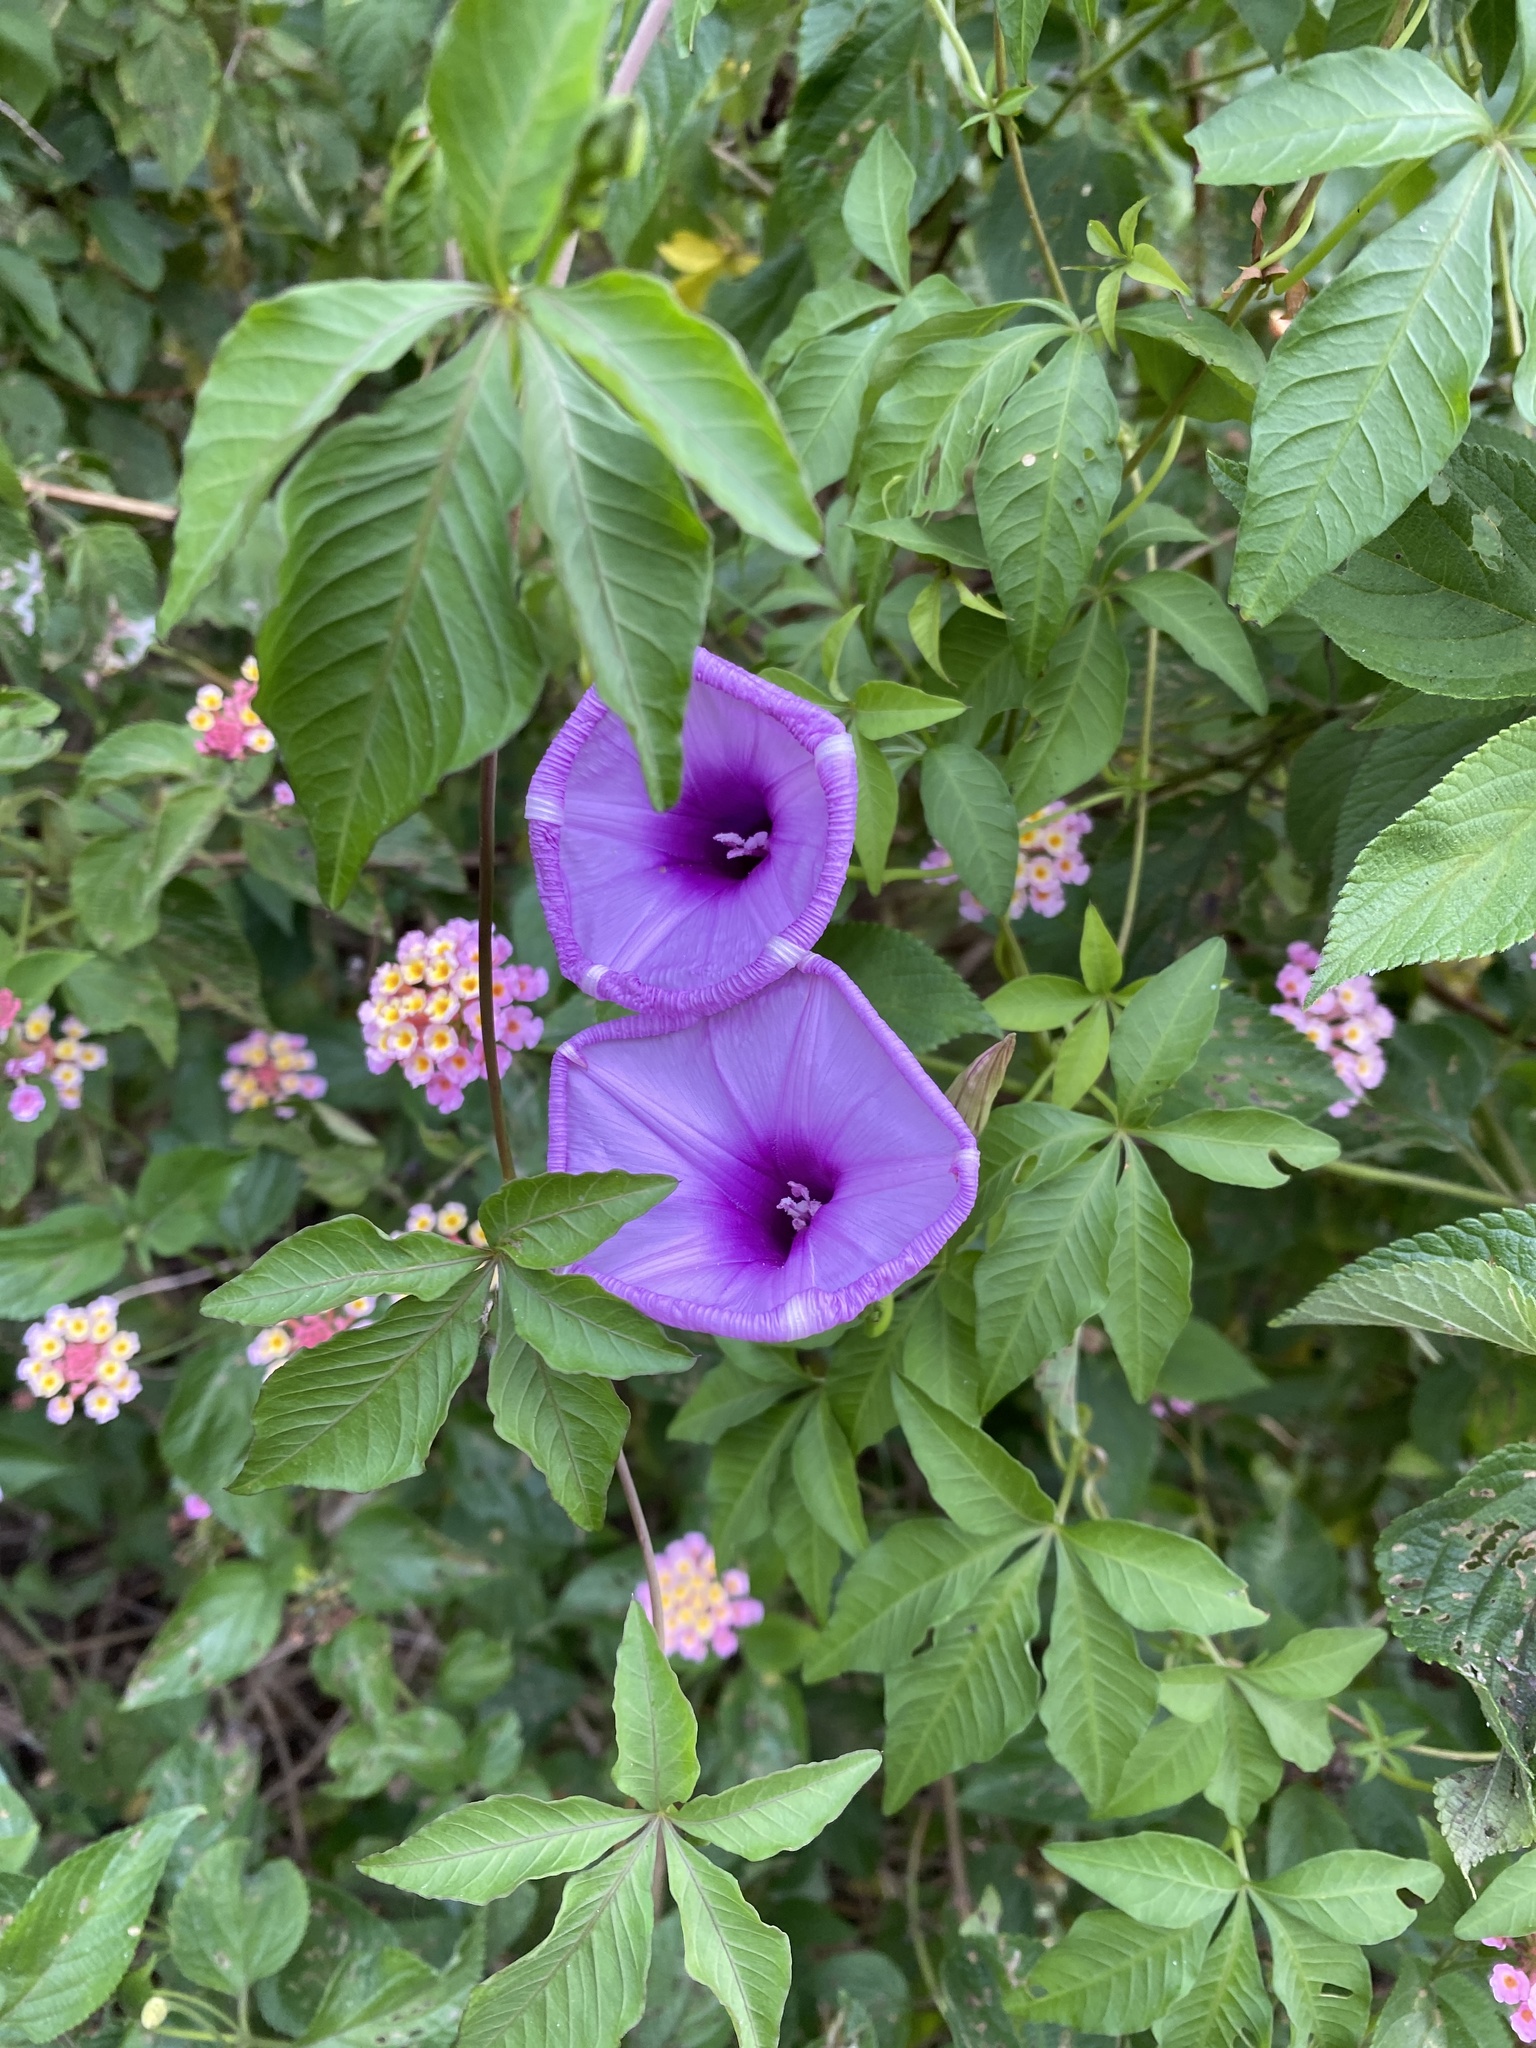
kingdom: Plantae
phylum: Tracheophyta
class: Magnoliopsida
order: Solanales
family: Convolvulaceae
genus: Ipomoea
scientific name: Ipomoea cairica
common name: Mile a minute vine
